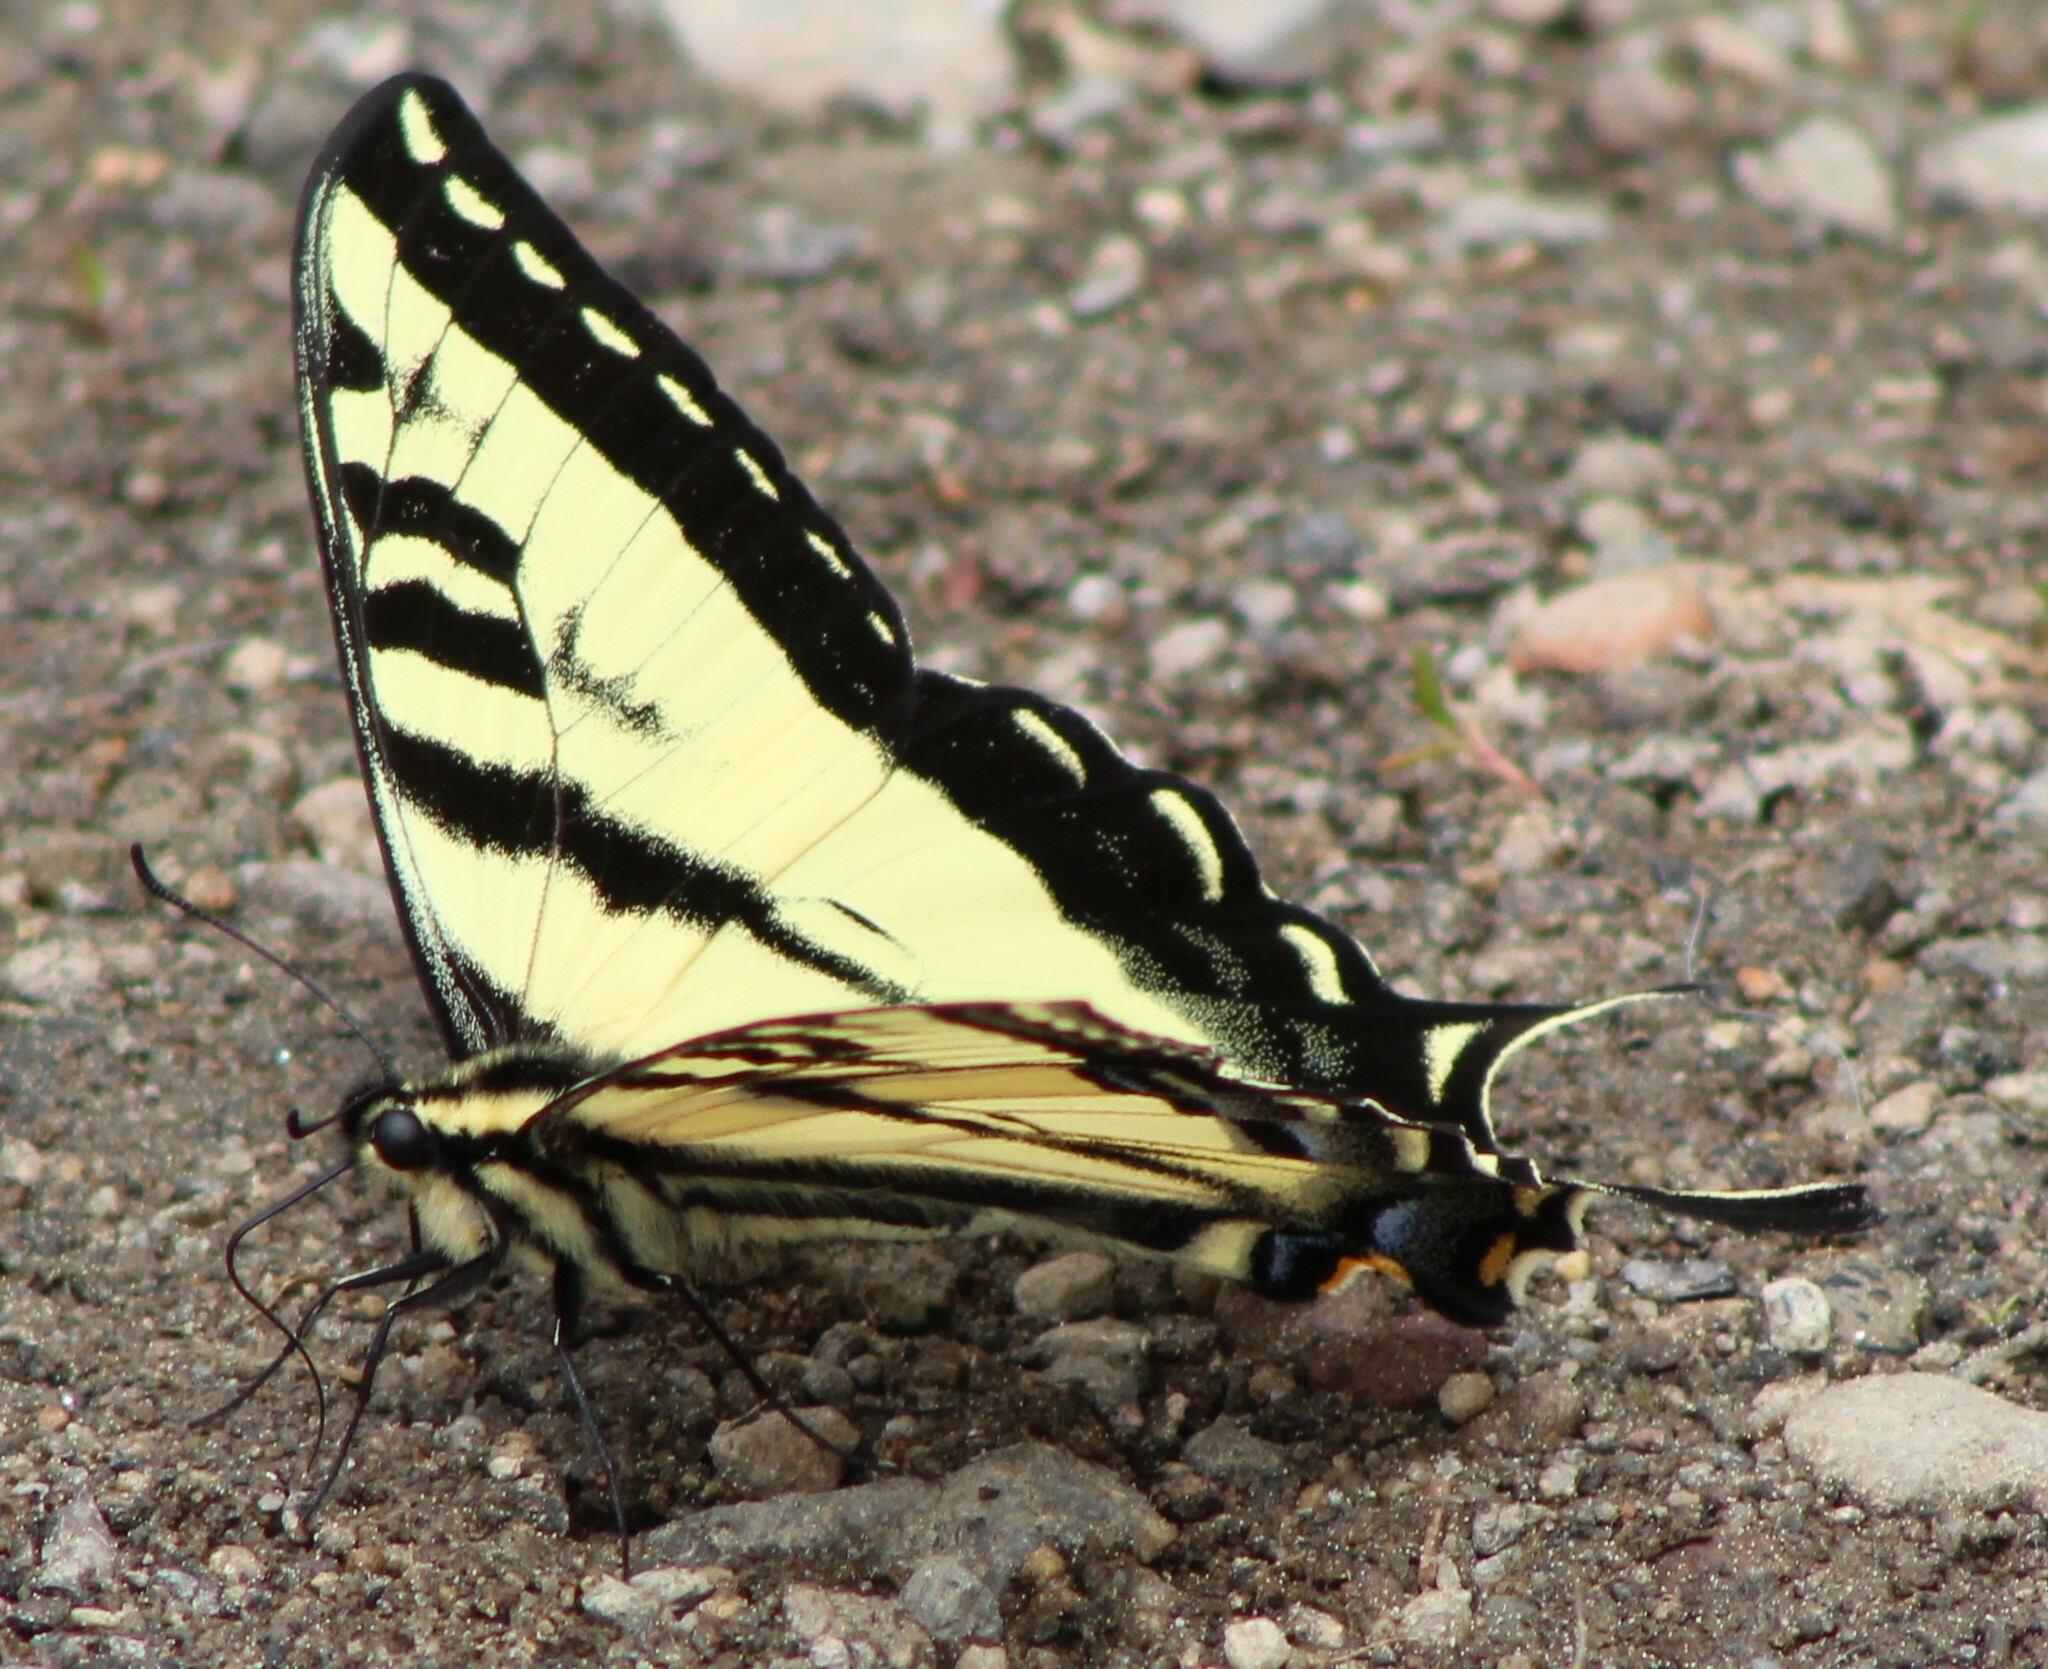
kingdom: Animalia
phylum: Arthropoda
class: Insecta
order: Lepidoptera
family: Papilionidae
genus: Papilio
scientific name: Papilio rutulus
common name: Western tiger swallowtail
